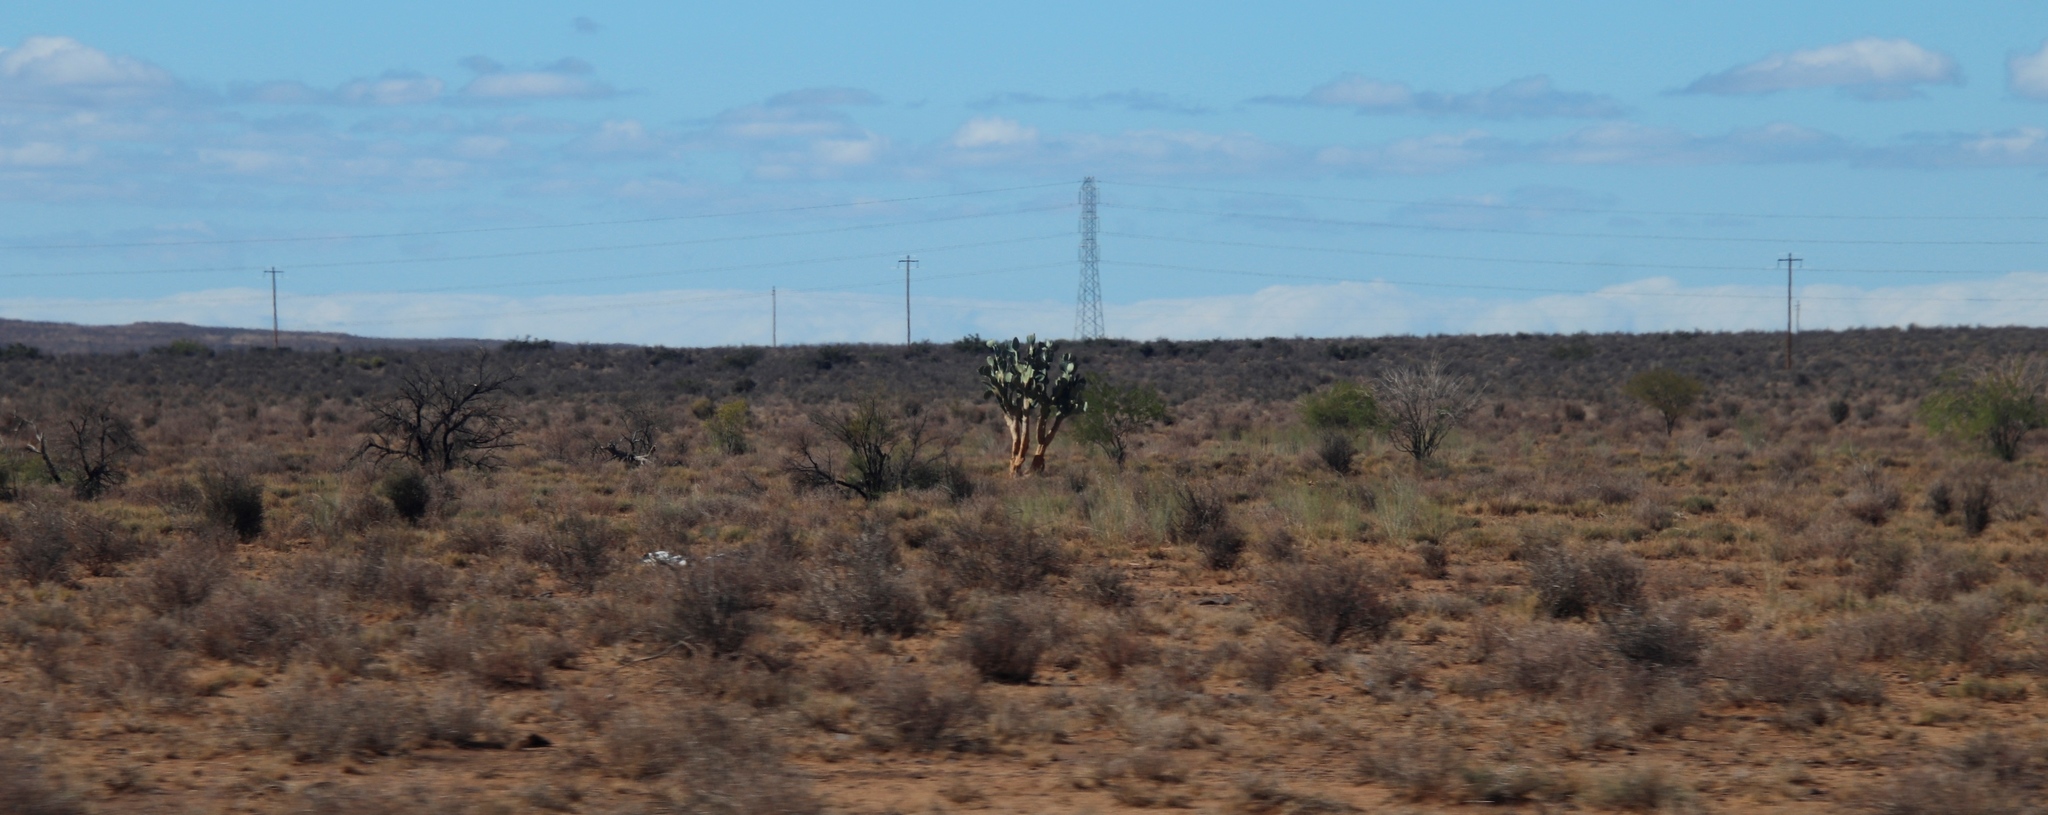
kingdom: Plantae
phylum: Tracheophyta
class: Magnoliopsida
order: Caryophyllales
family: Cactaceae
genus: Opuntia
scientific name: Opuntia ficus-indica
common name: Barbary fig
